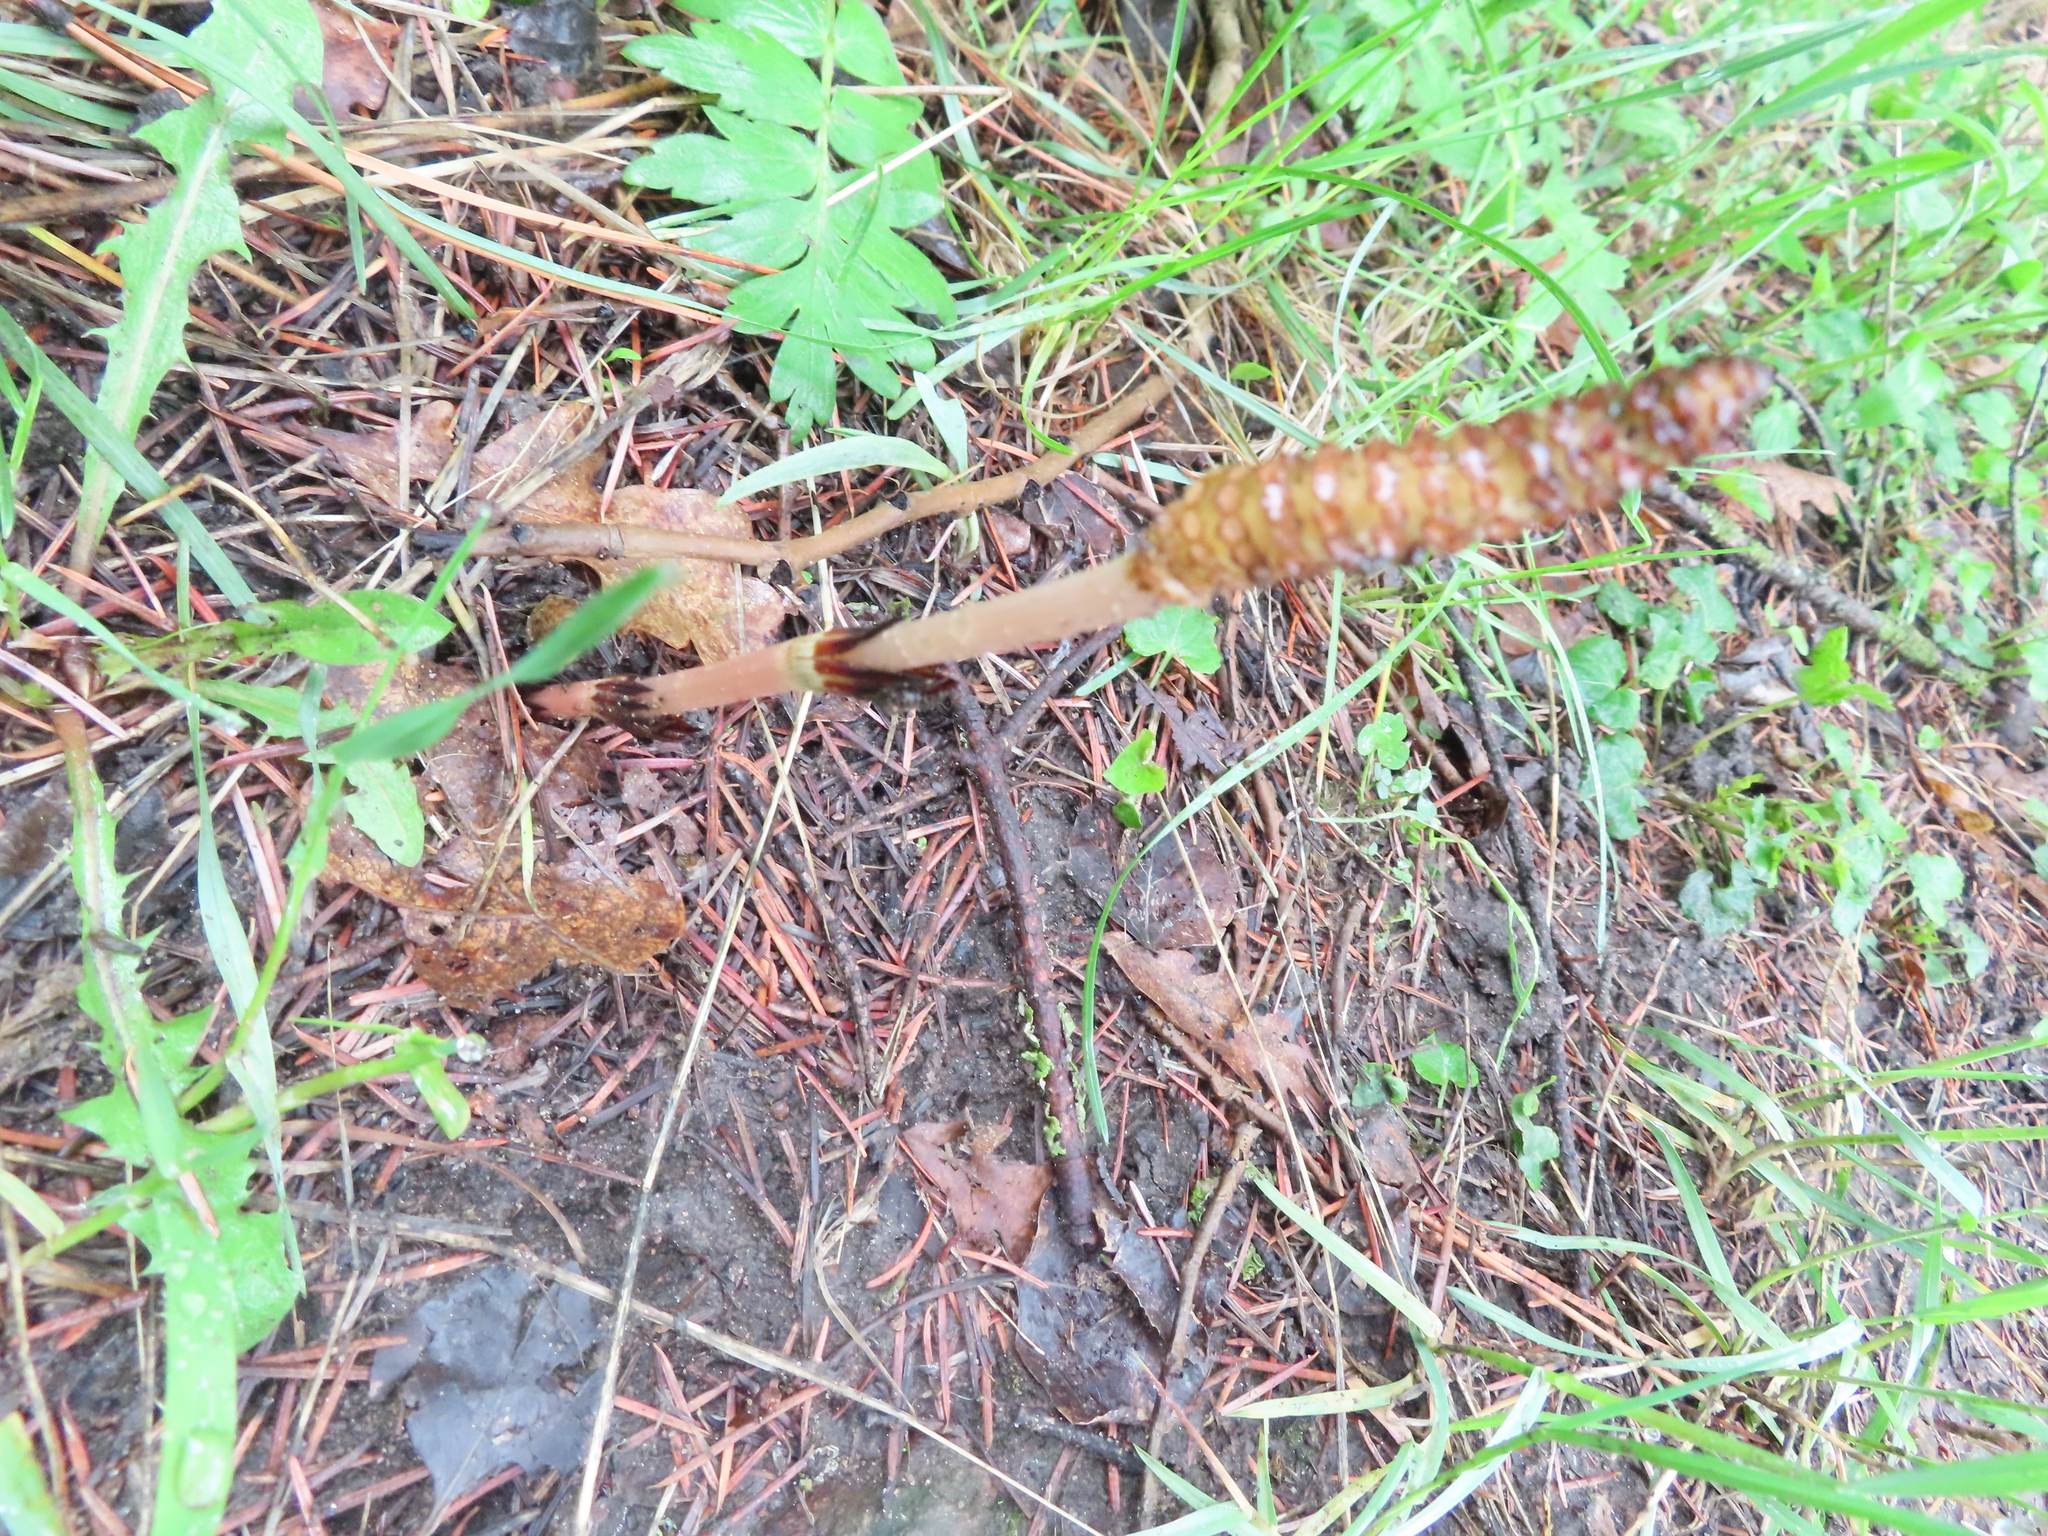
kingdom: Plantae
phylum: Tracheophyta
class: Polypodiopsida
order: Equisetales
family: Equisetaceae
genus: Equisetum
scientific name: Equisetum arvense
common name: Field horsetail
